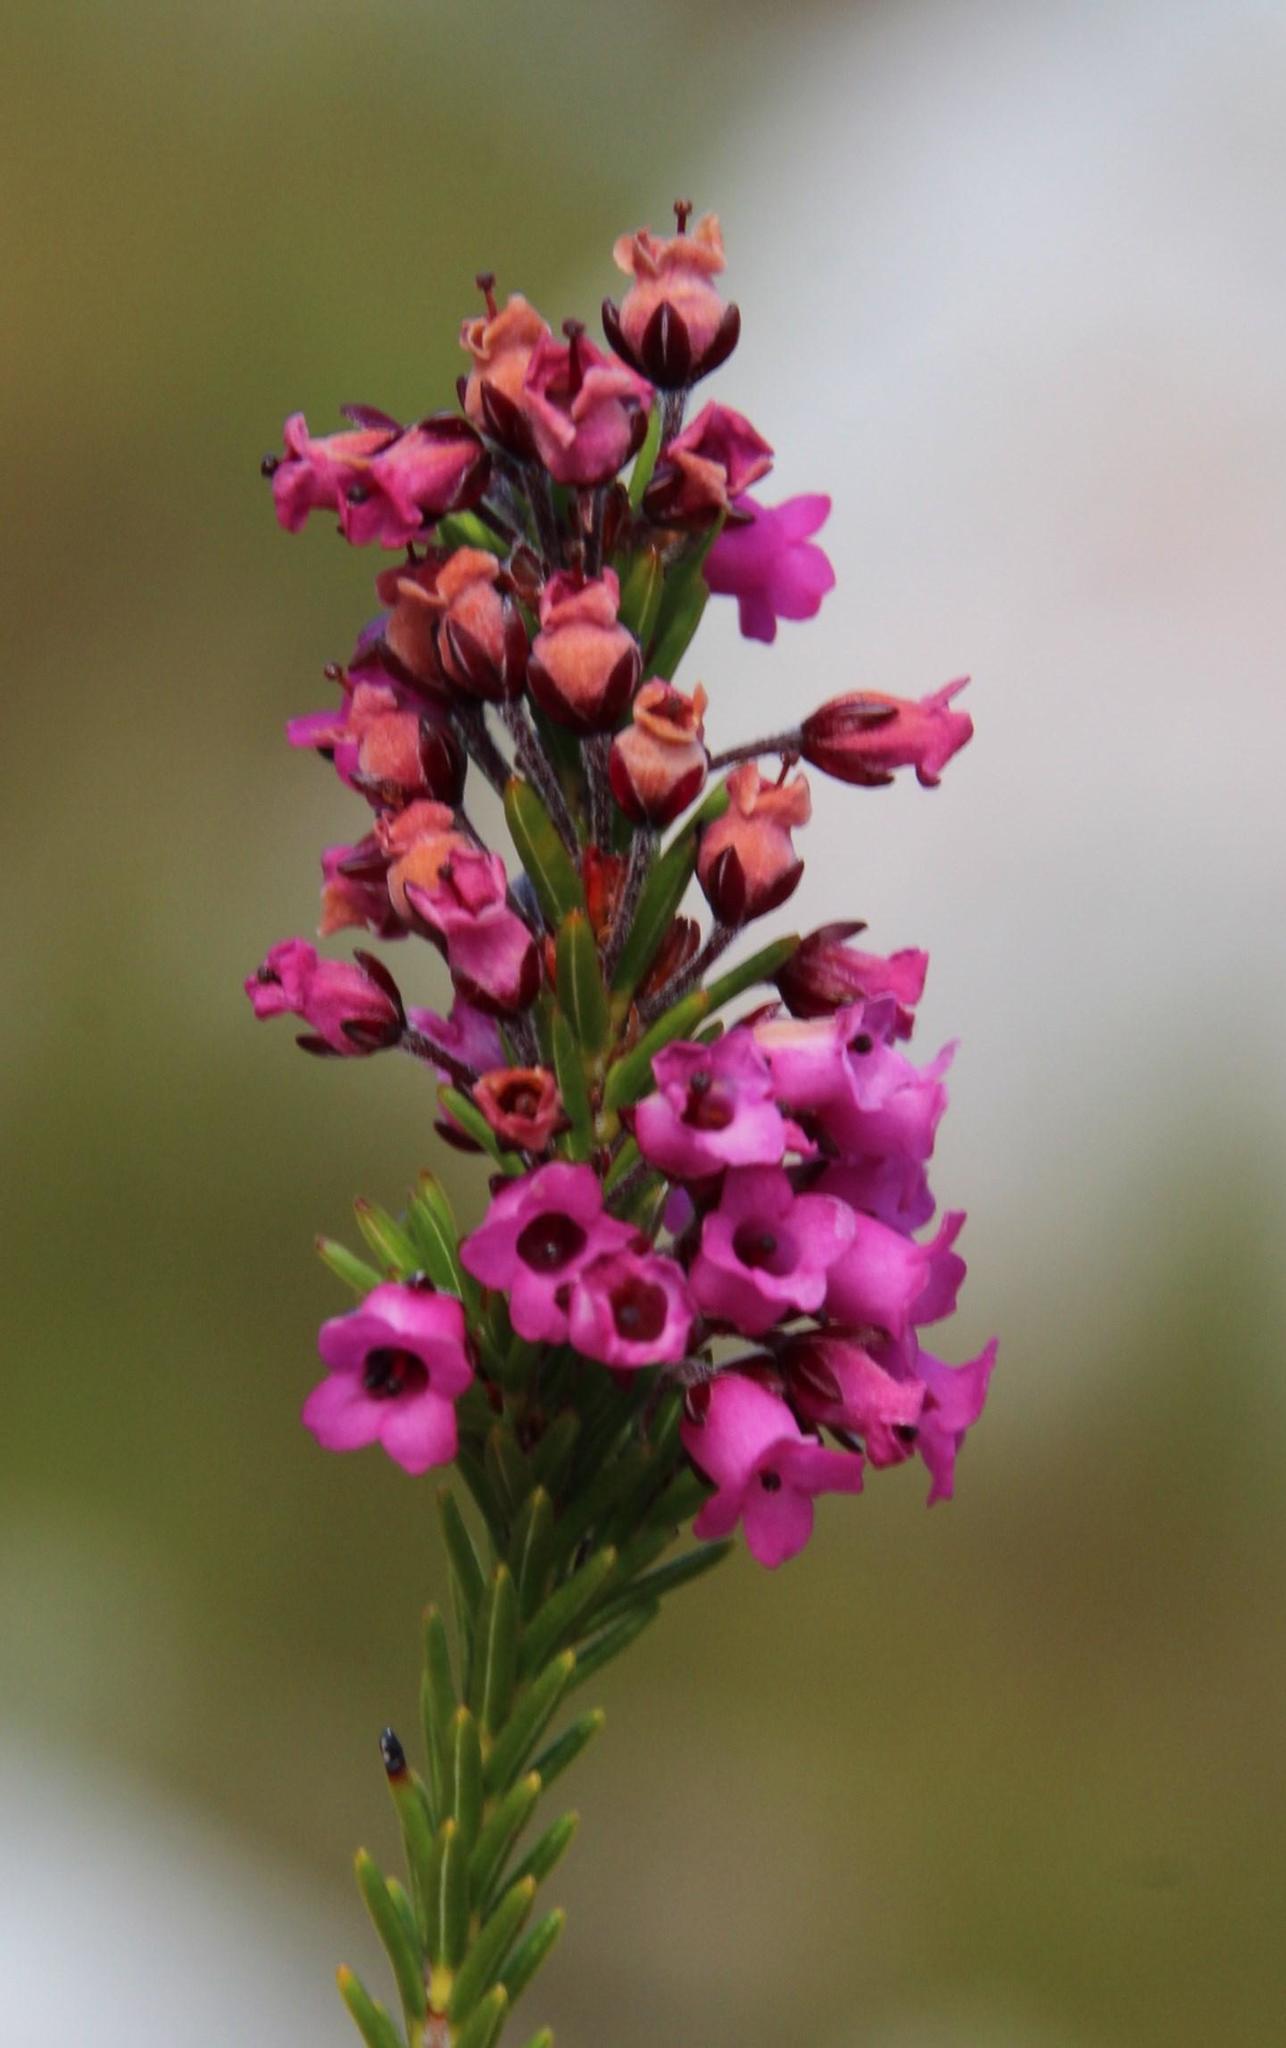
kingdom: Plantae
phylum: Tracheophyta
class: Magnoliopsida
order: Ericales
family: Ericaceae
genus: Erica
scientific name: Erica pulchella
